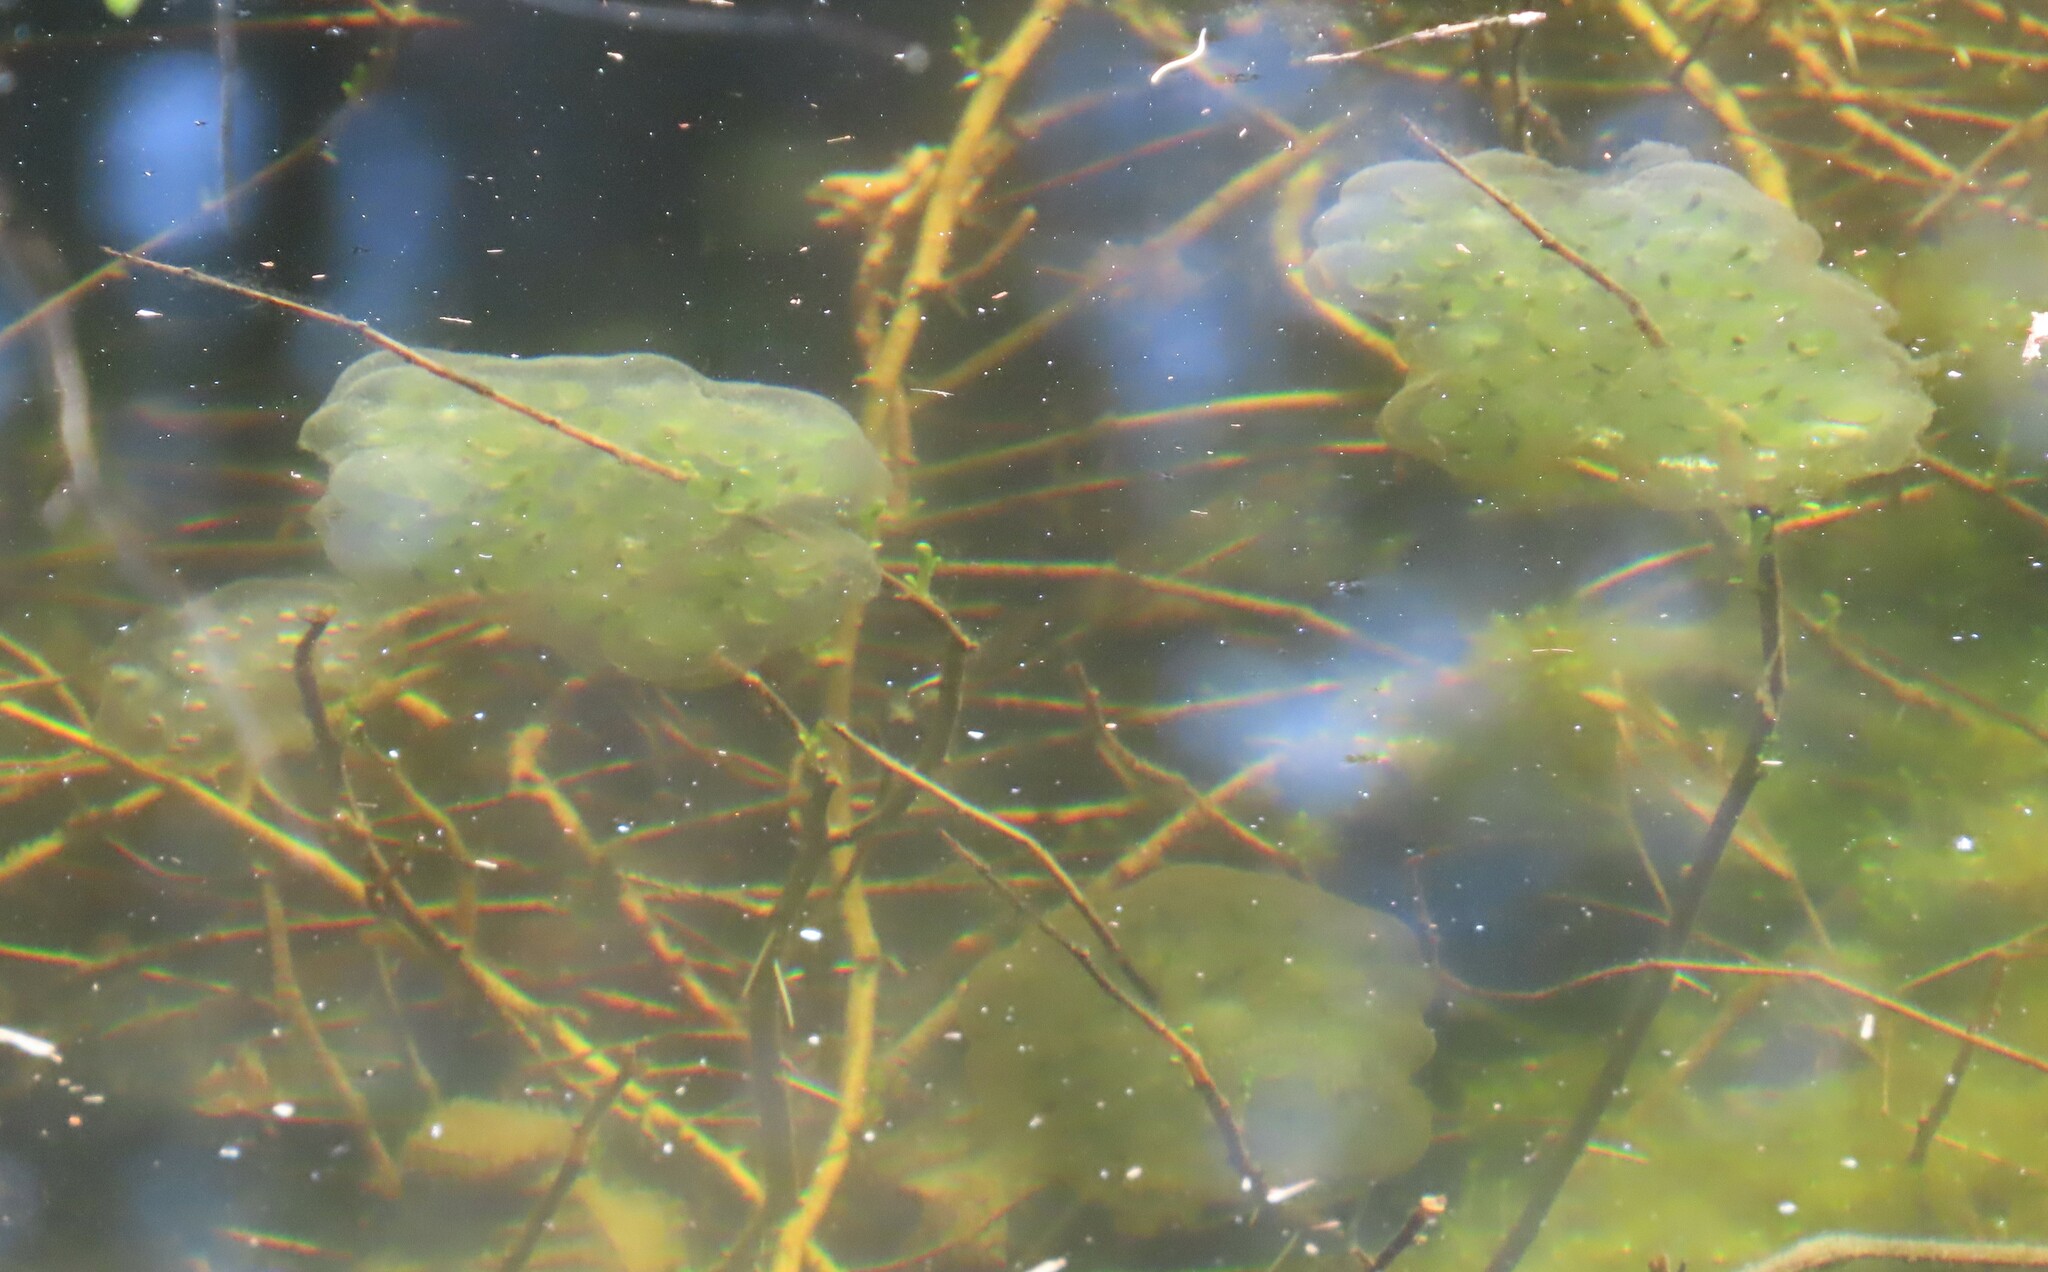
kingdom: Animalia
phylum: Chordata
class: Amphibia
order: Caudata
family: Ambystomatidae
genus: Ambystoma
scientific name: Ambystoma maculatum
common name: Spotted salamander
